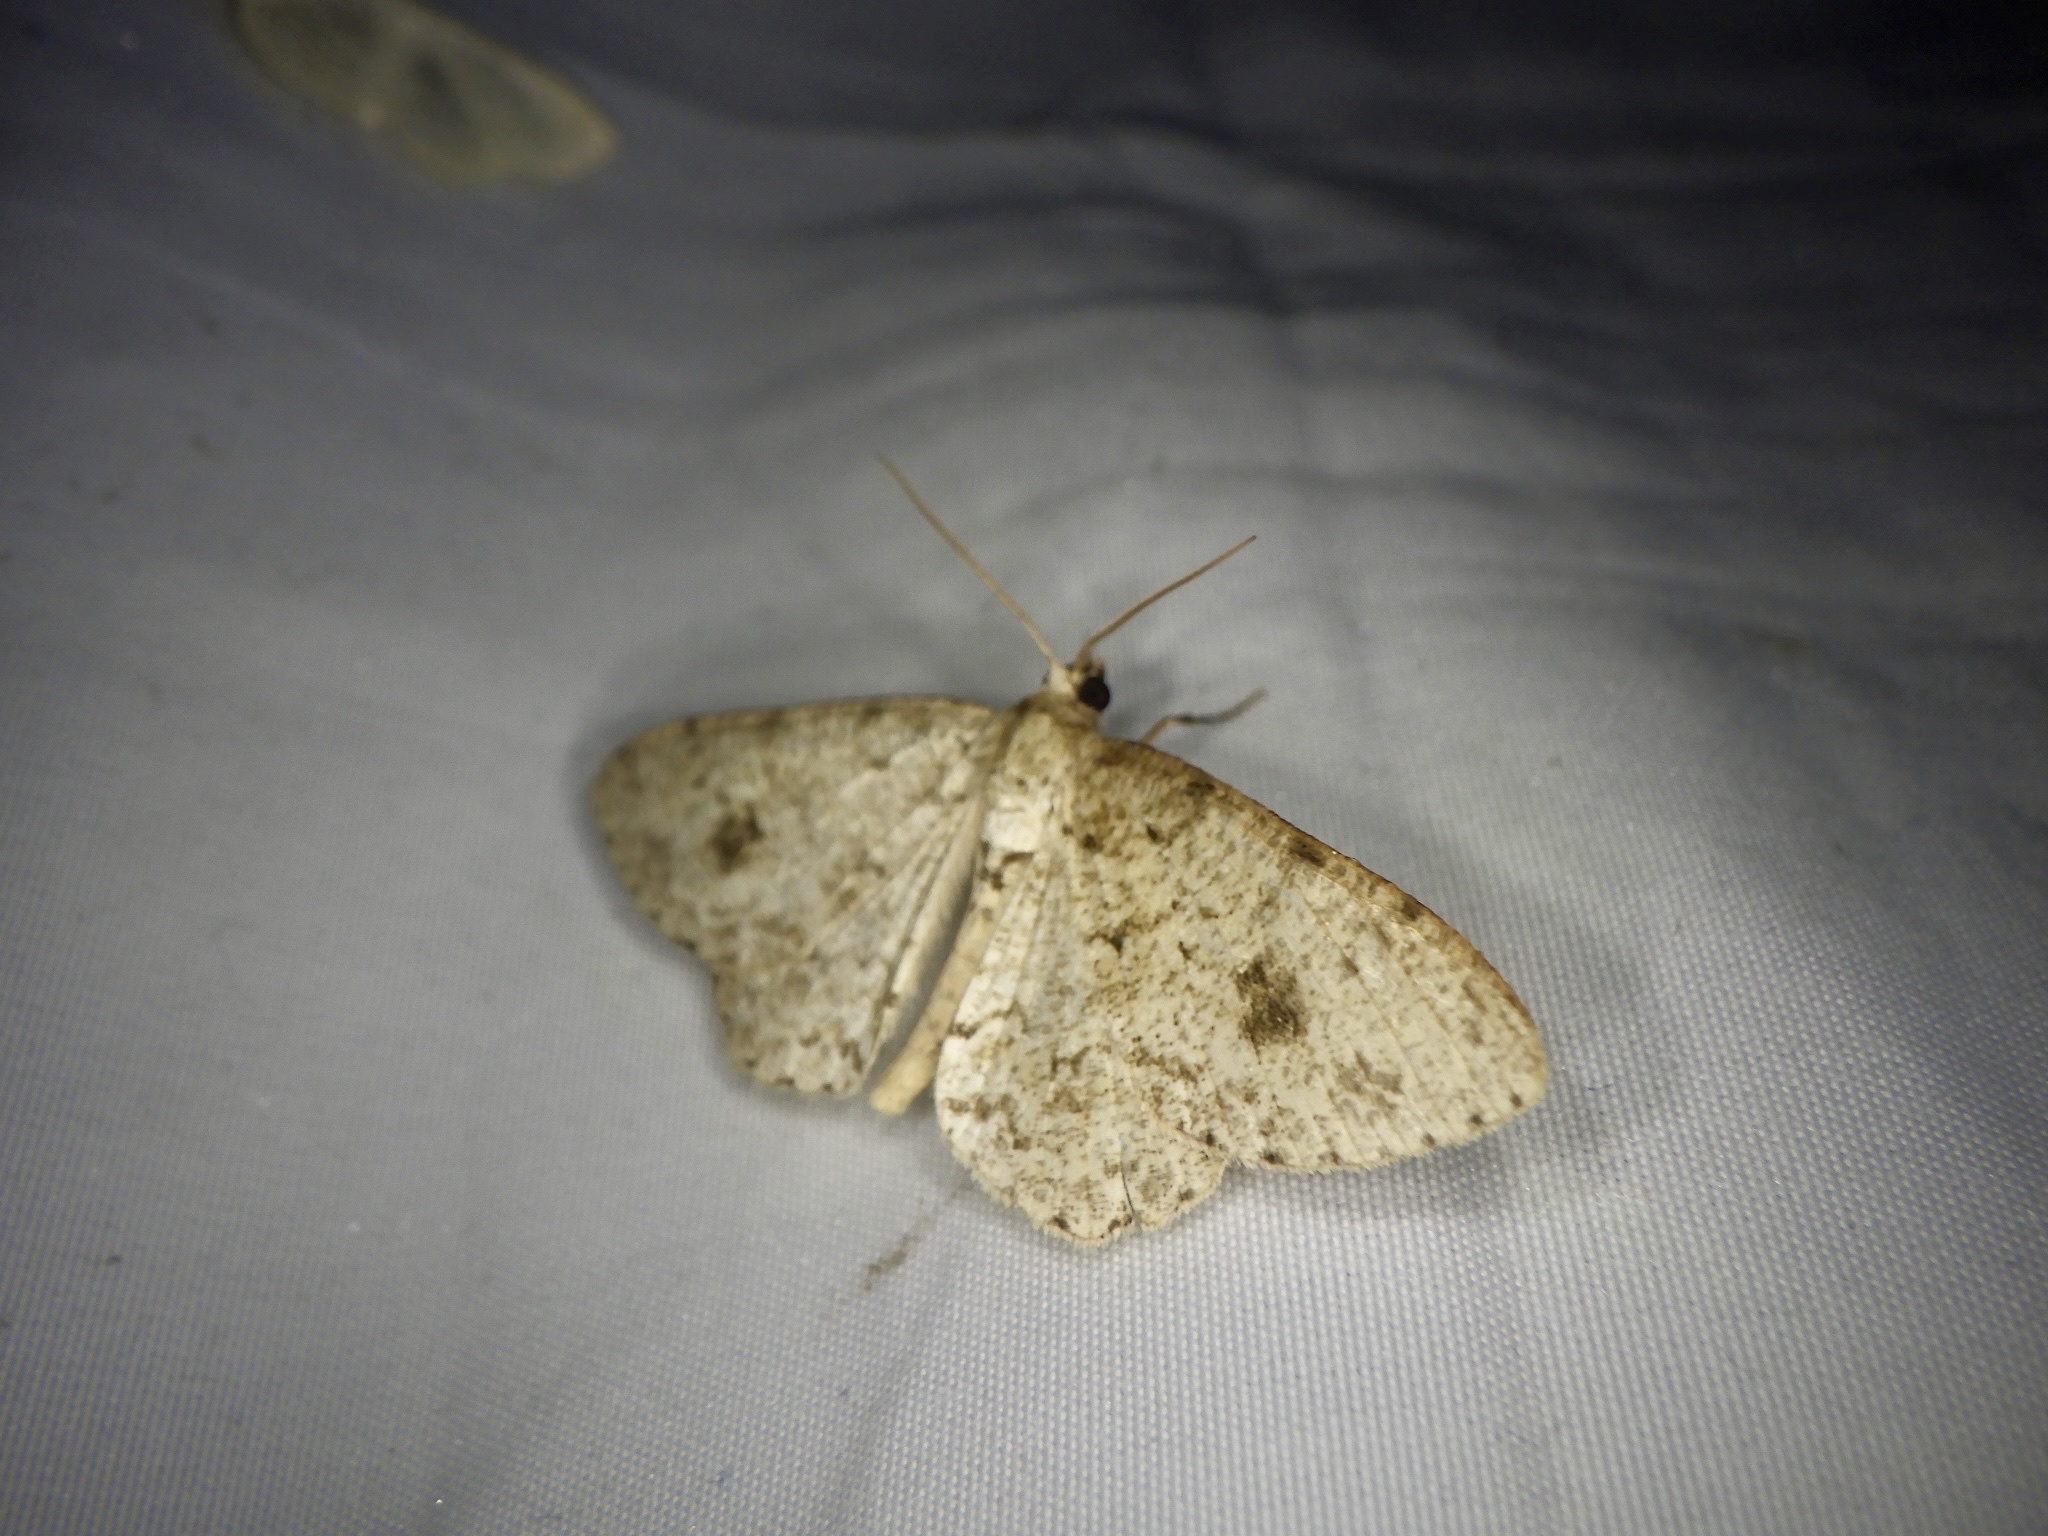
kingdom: Animalia
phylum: Arthropoda
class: Insecta
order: Lepidoptera
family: Geometridae
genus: Ectropis
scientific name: Ectropis excellens
